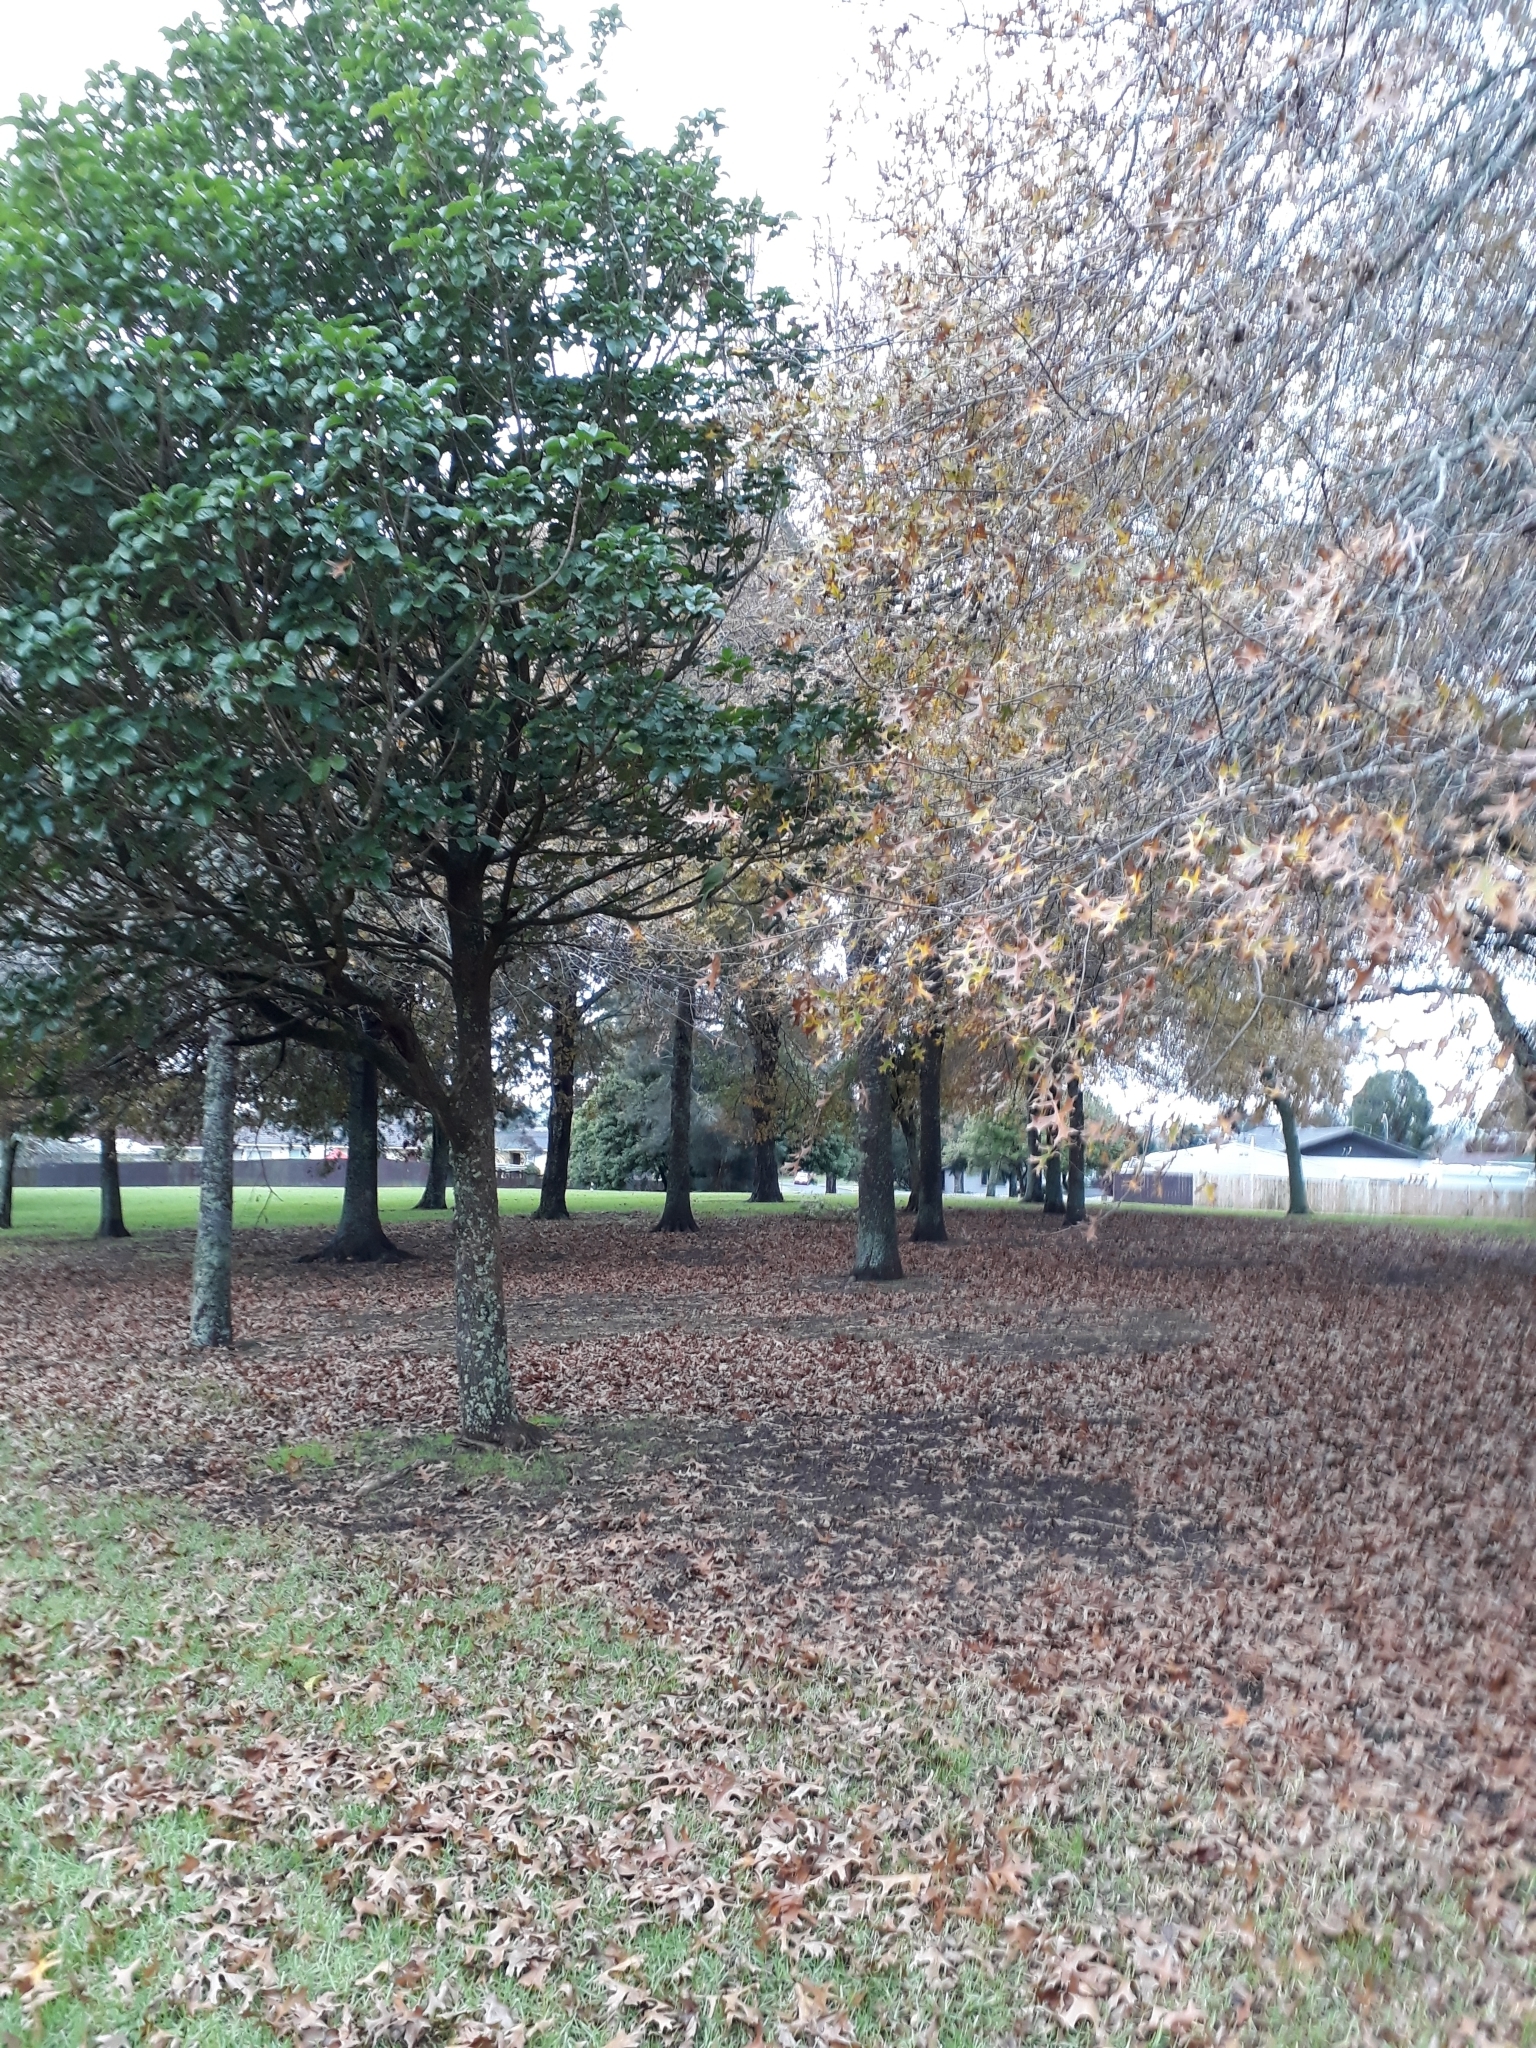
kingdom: Animalia
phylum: Chordata
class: Aves
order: Psittaciformes
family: Psittacidae
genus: Psittacula
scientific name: Psittacula krameri
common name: Rose-ringed parakeet
